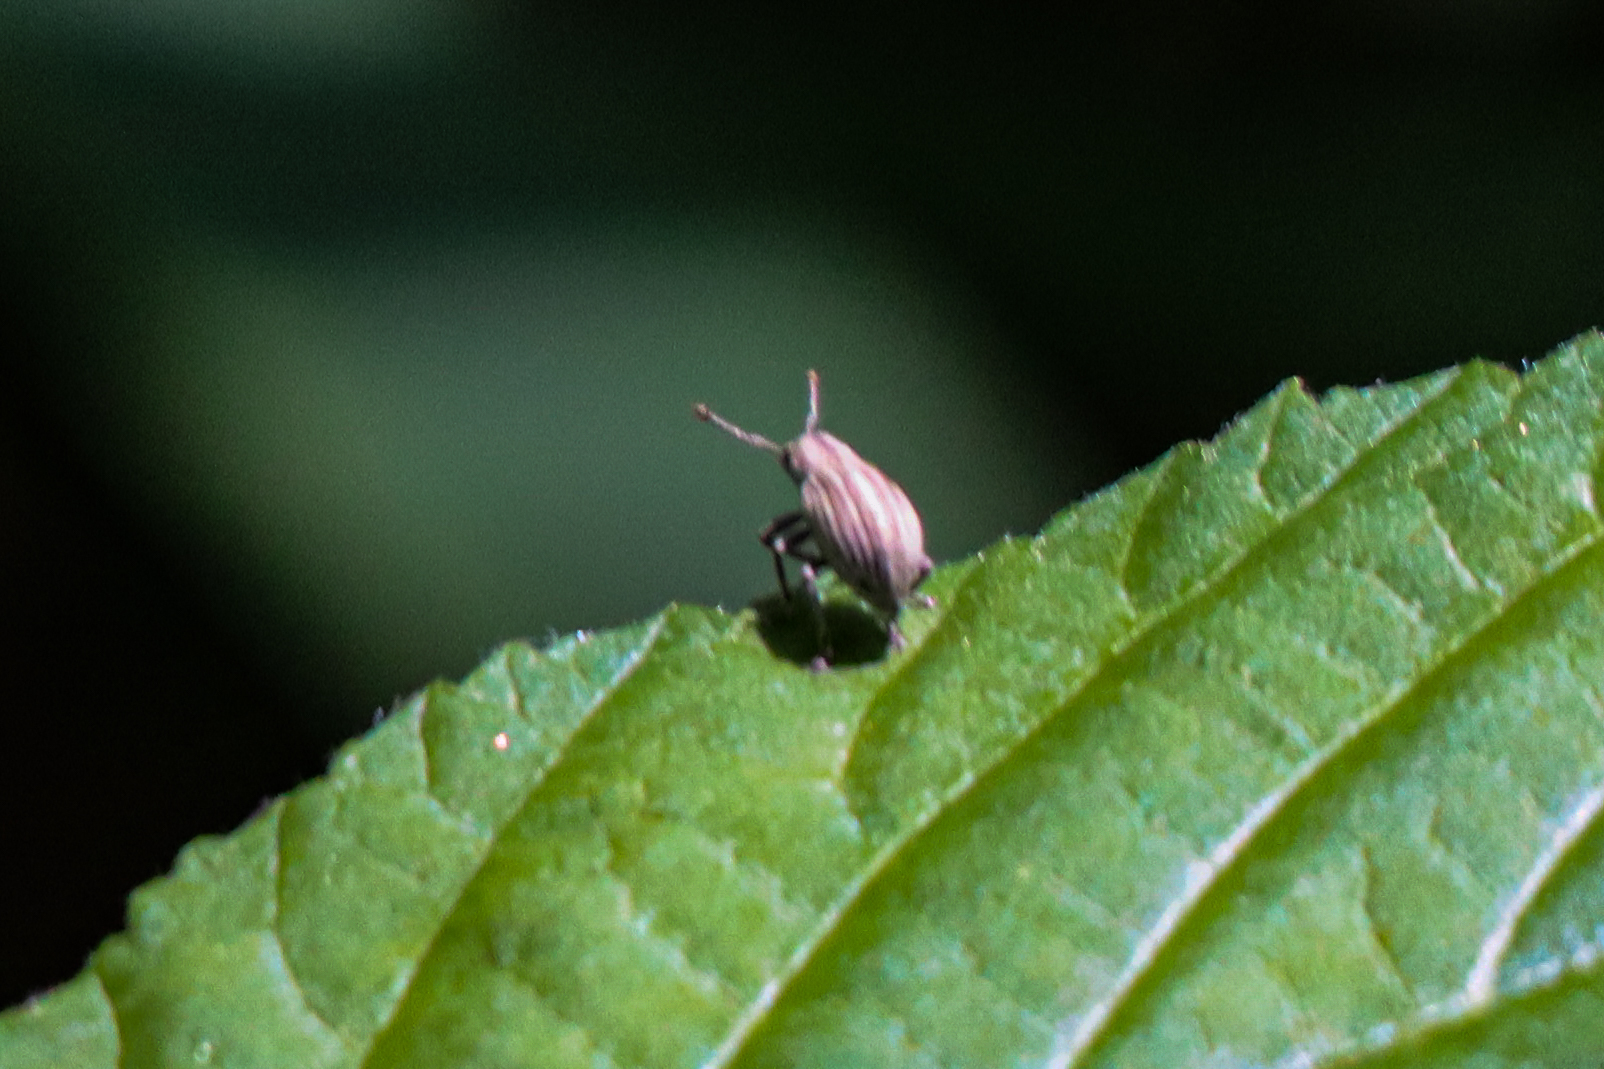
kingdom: Animalia
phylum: Arthropoda
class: Insecta
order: Coleoptera
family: Curculionidae
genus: Aphrastus
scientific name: Aphrastus taeniatus
